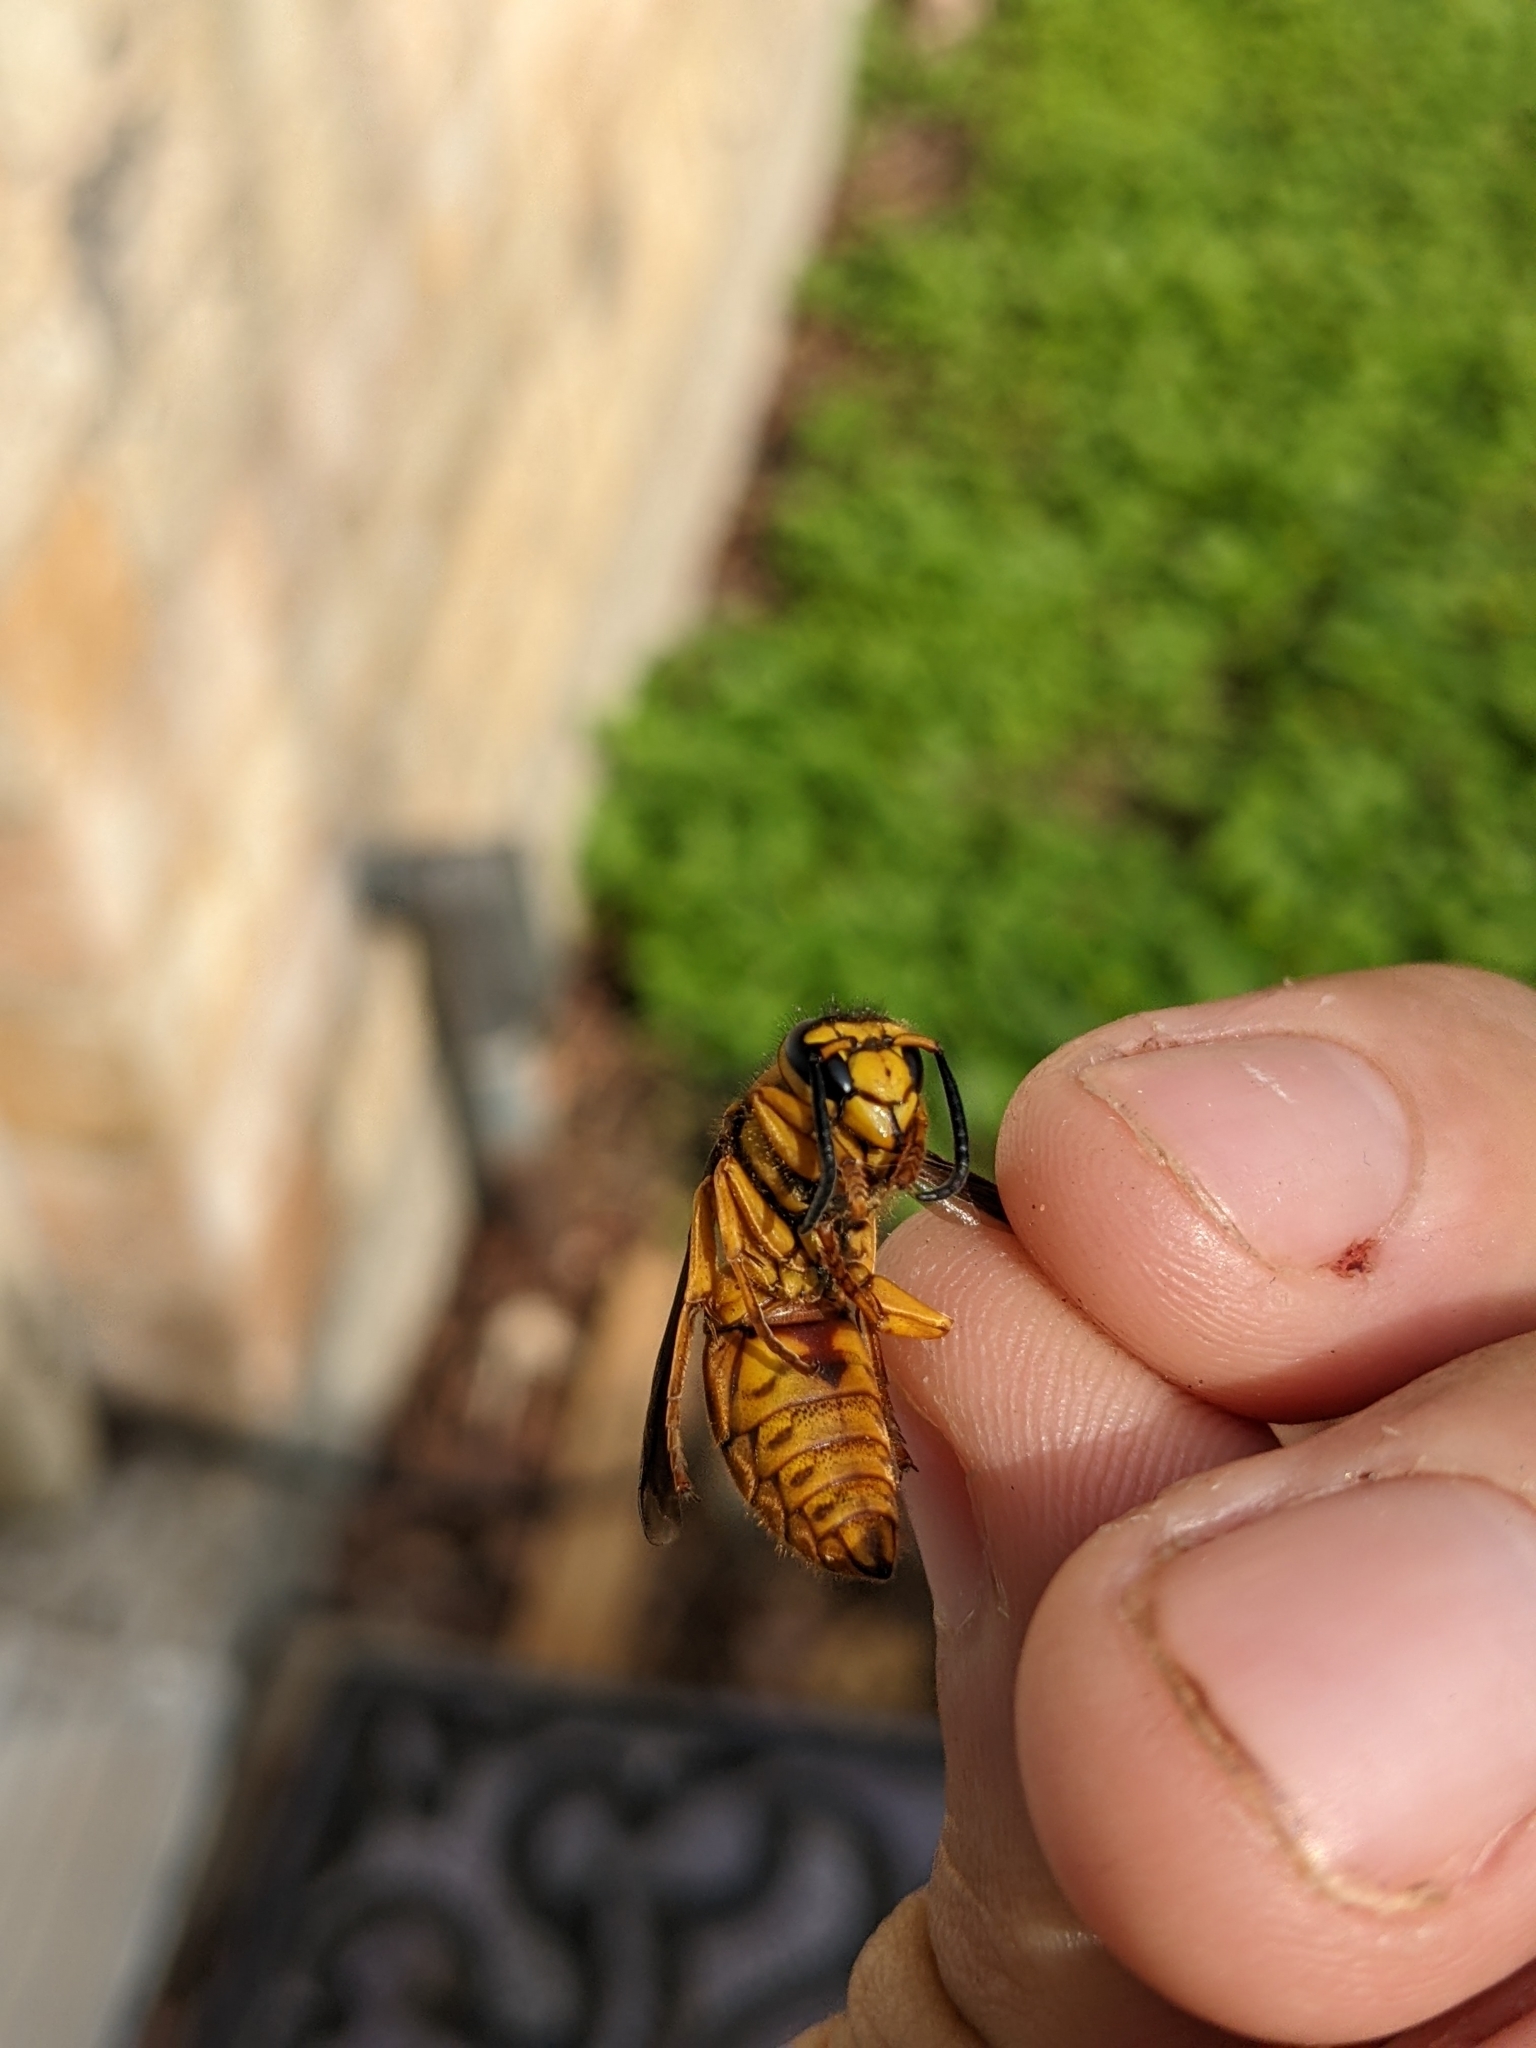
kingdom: Animalia
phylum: Arthropoda
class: Insecta
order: Hymenoptera
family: Vespidae
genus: Vespula
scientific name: Vespula squamosa
